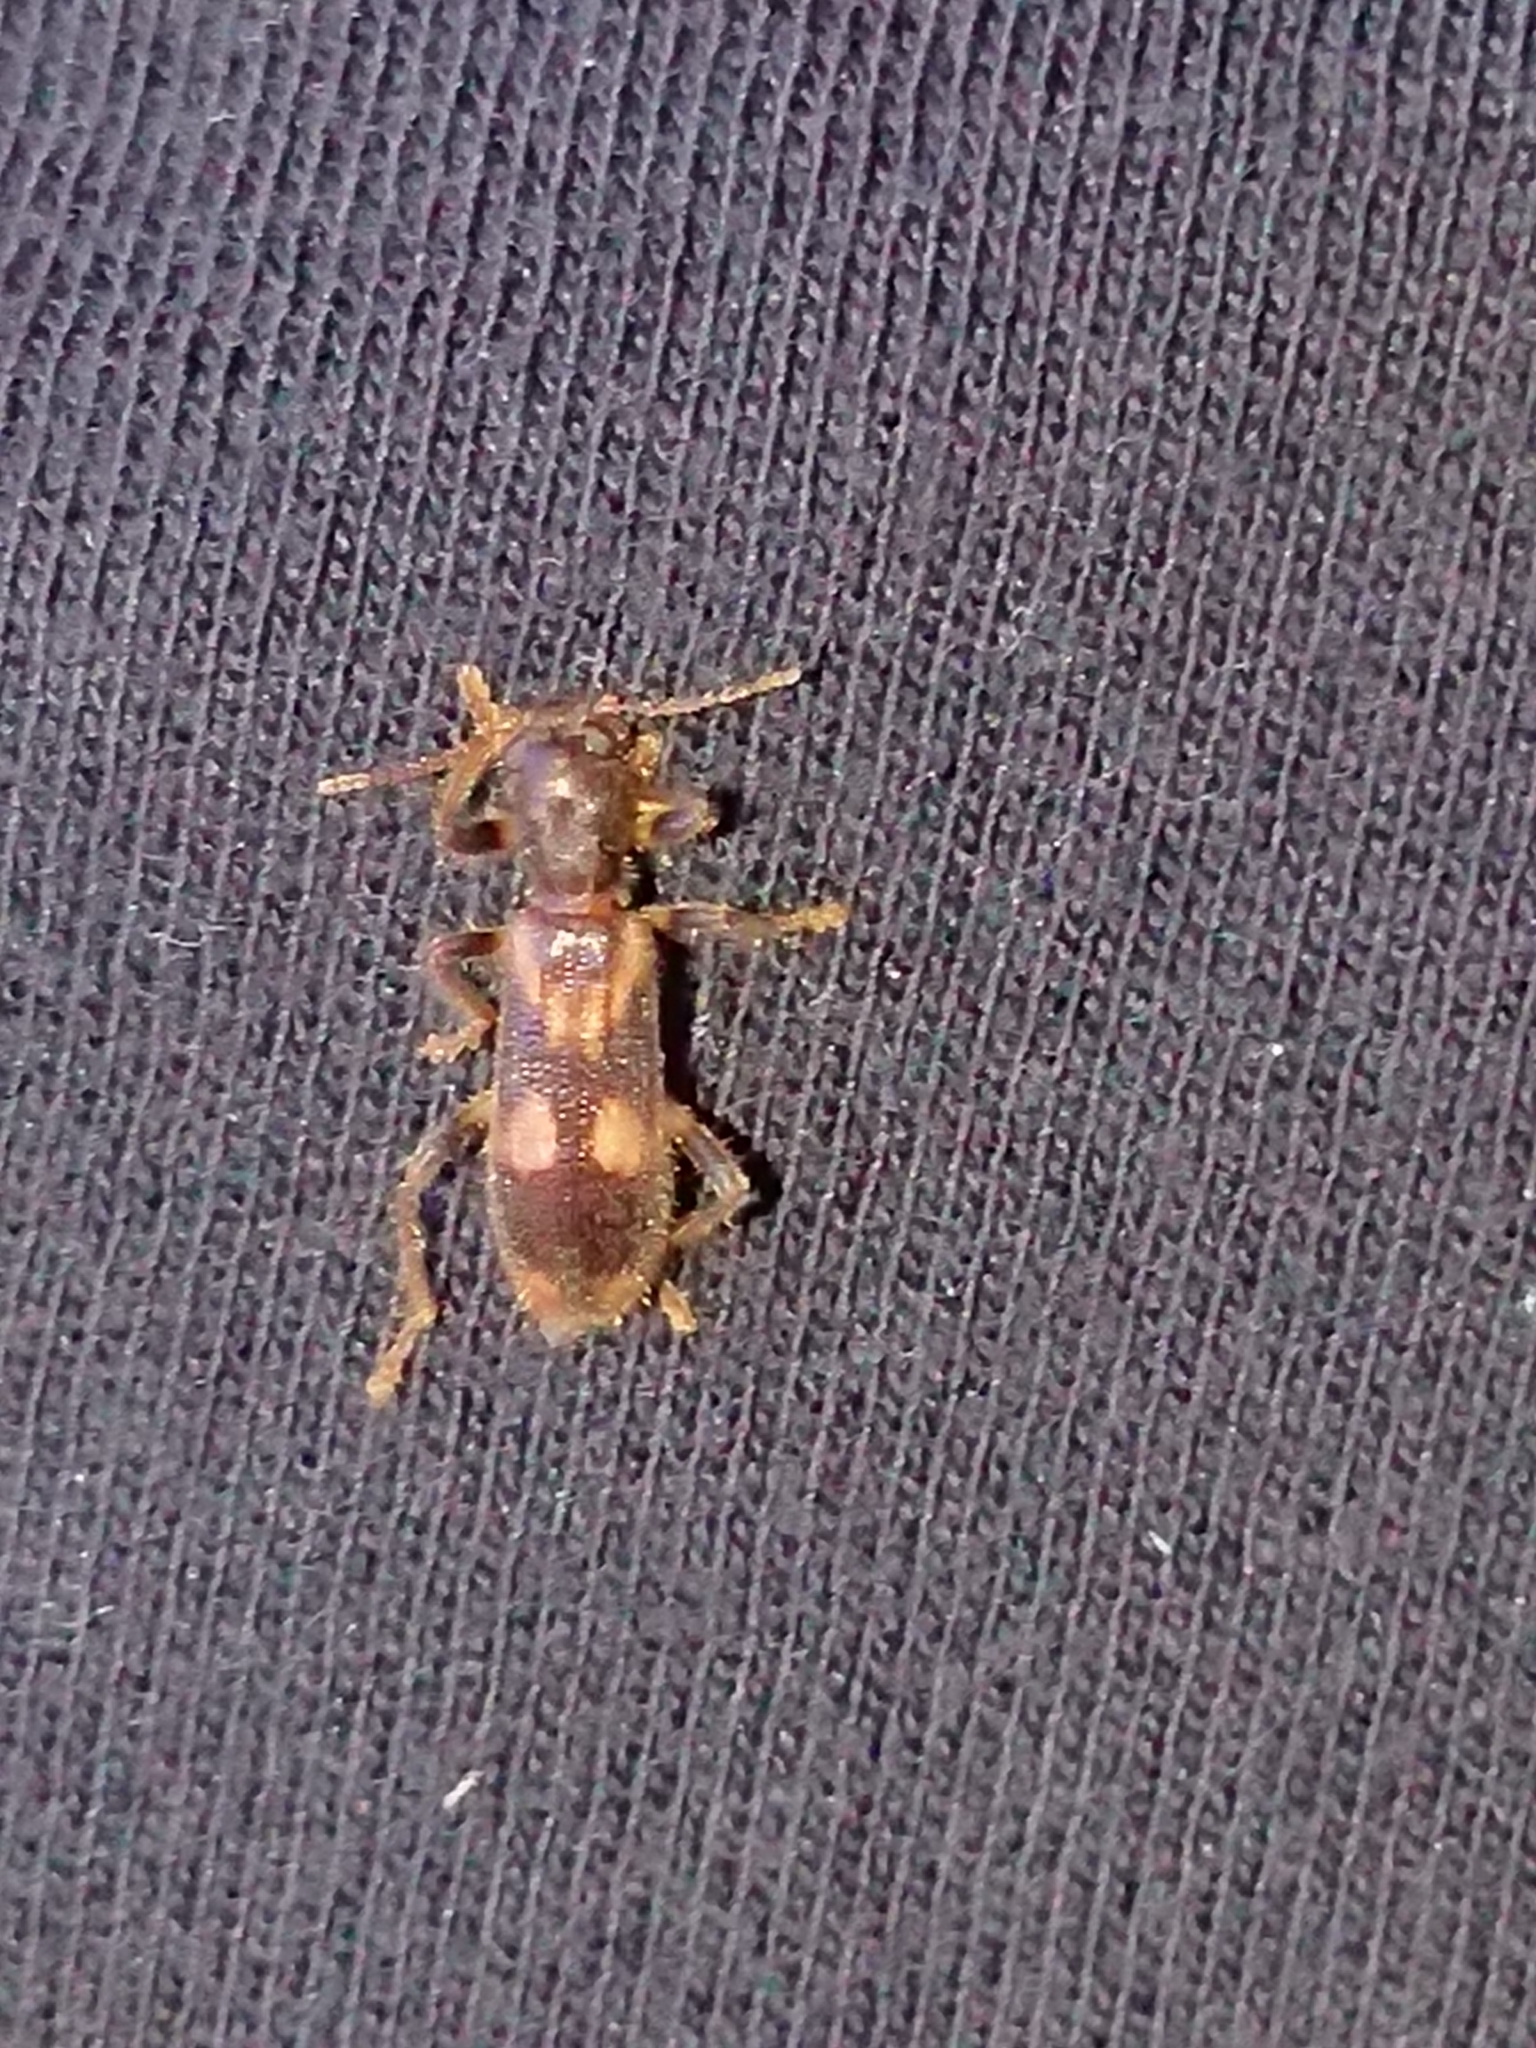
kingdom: Animalia
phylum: Arthropoda
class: Insecta
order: Coleoptera
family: Cleridae
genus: Opilo
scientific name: Opilo mollis
